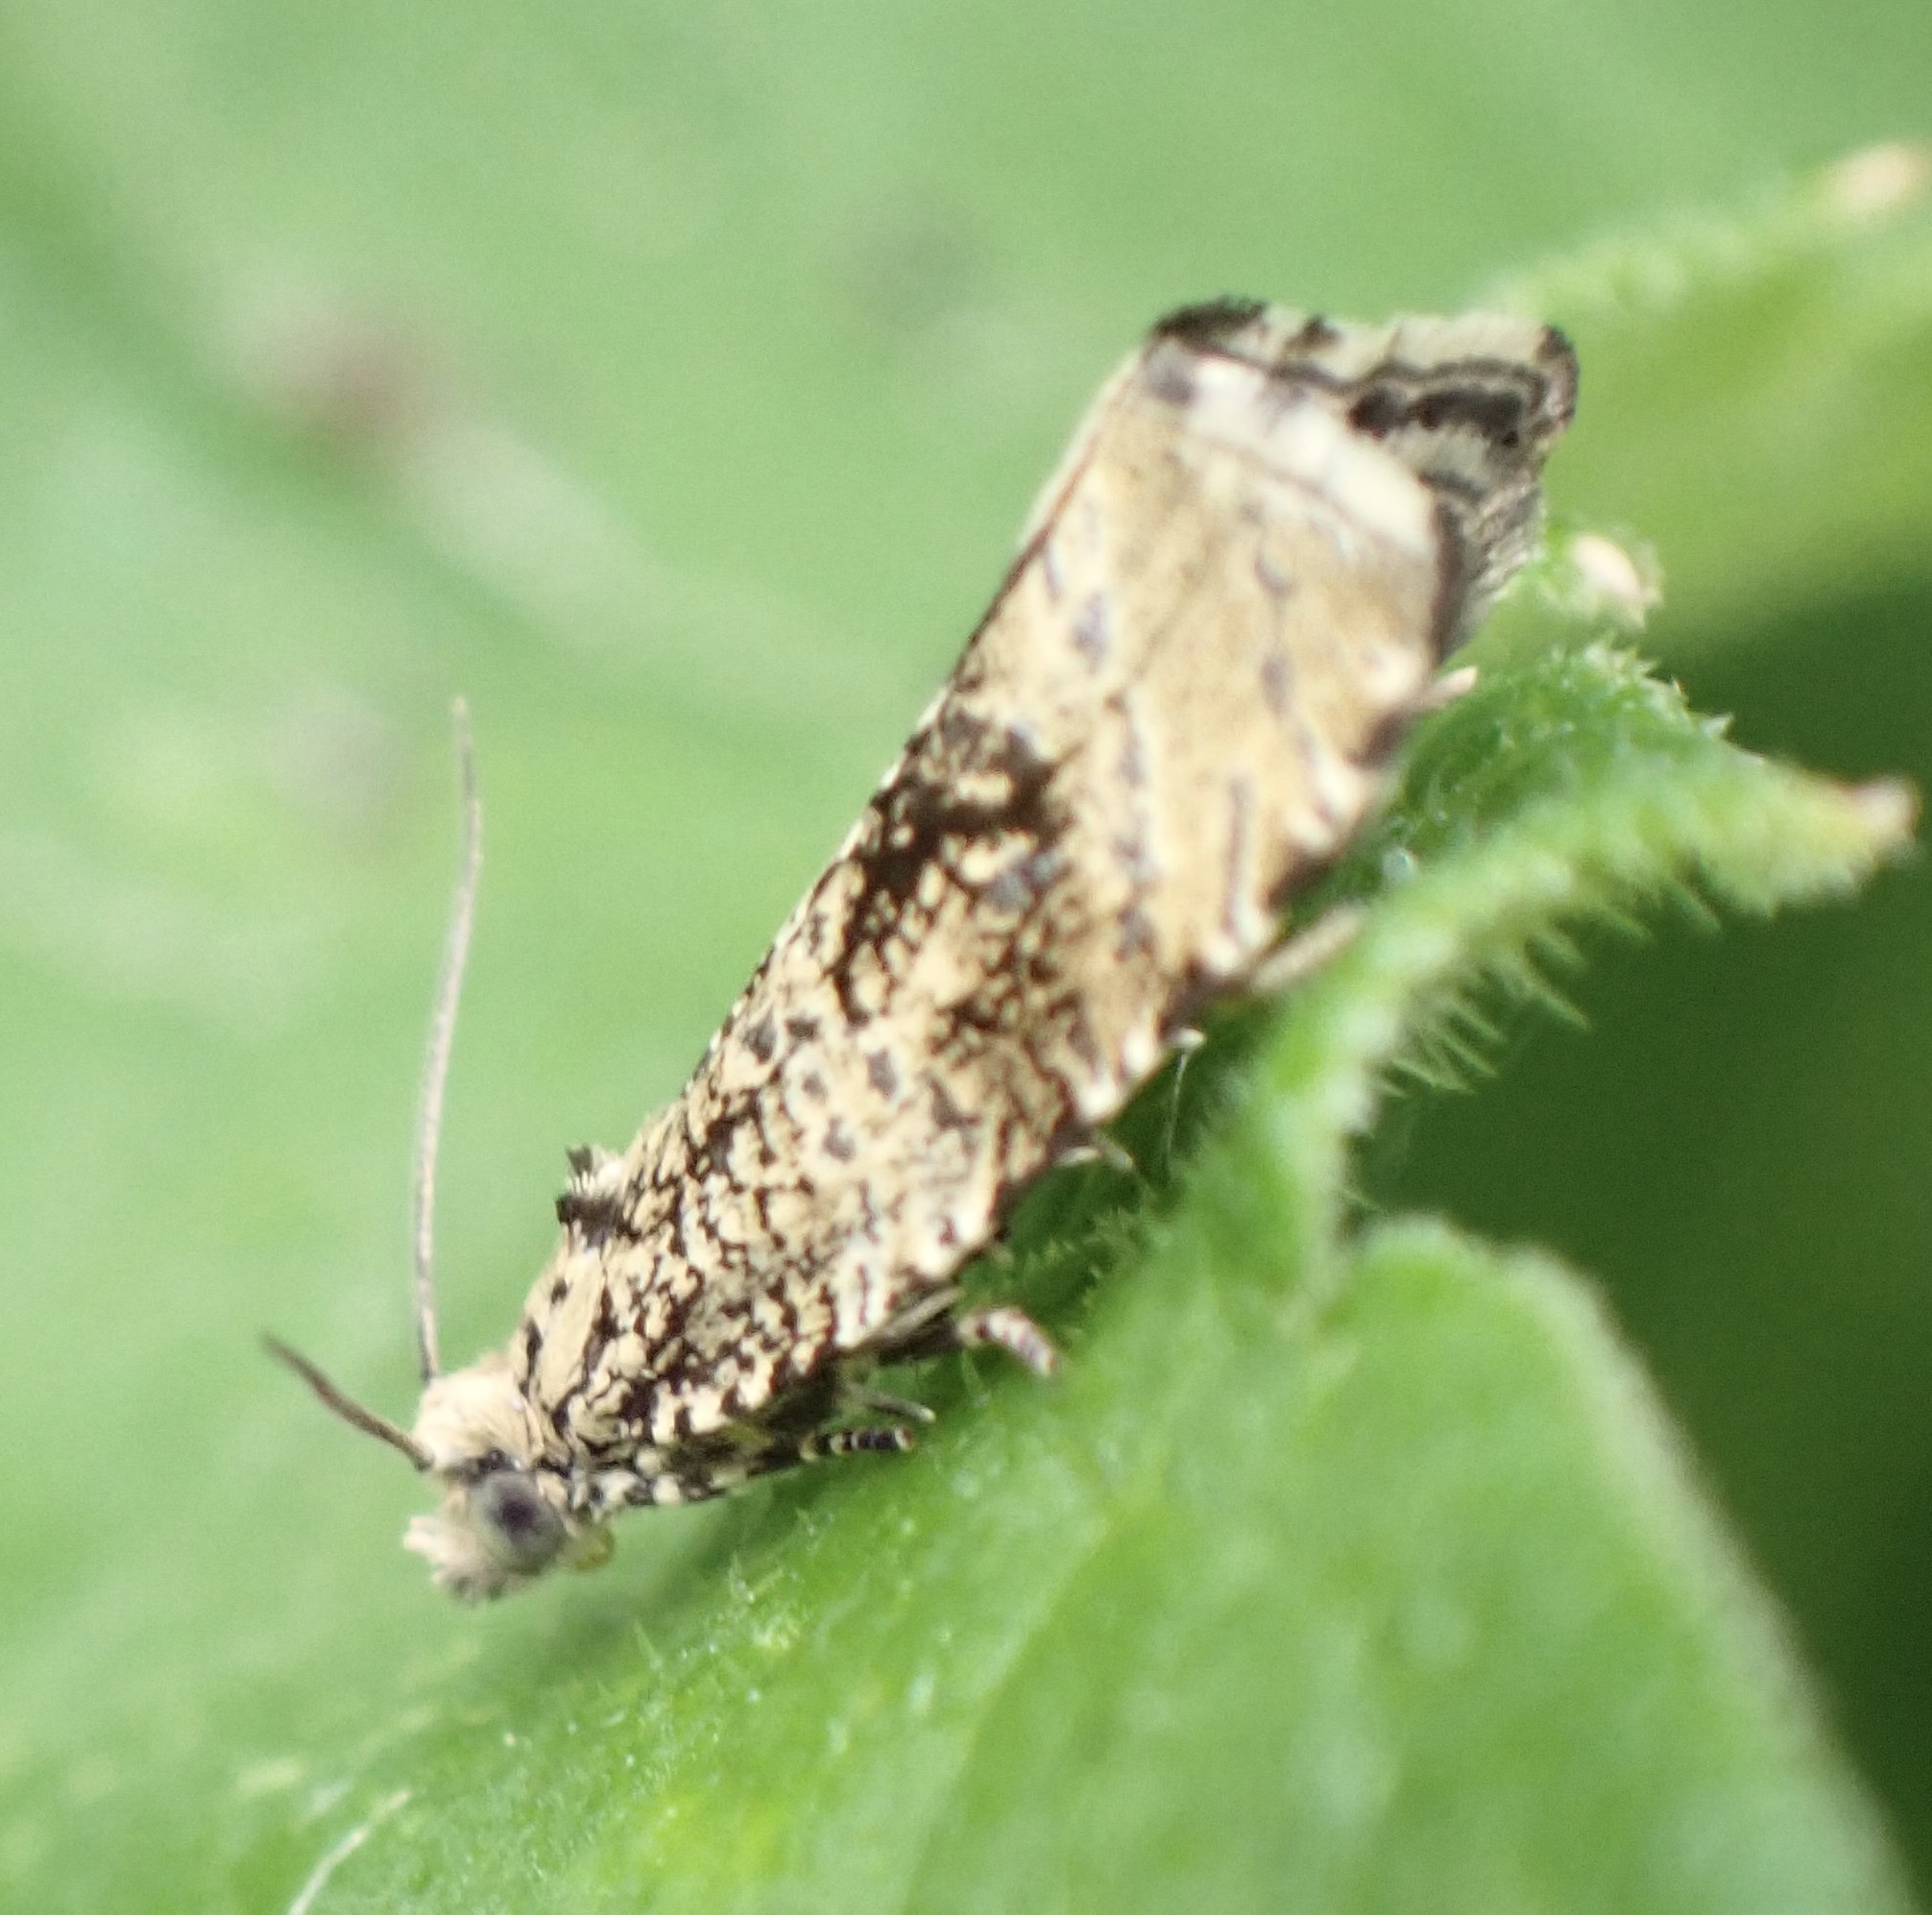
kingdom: Animalia
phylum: Arthropoda
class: Insecta
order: Lepidoptera
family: Tortricidae
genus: Syricoris
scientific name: Syricoris lacunana
